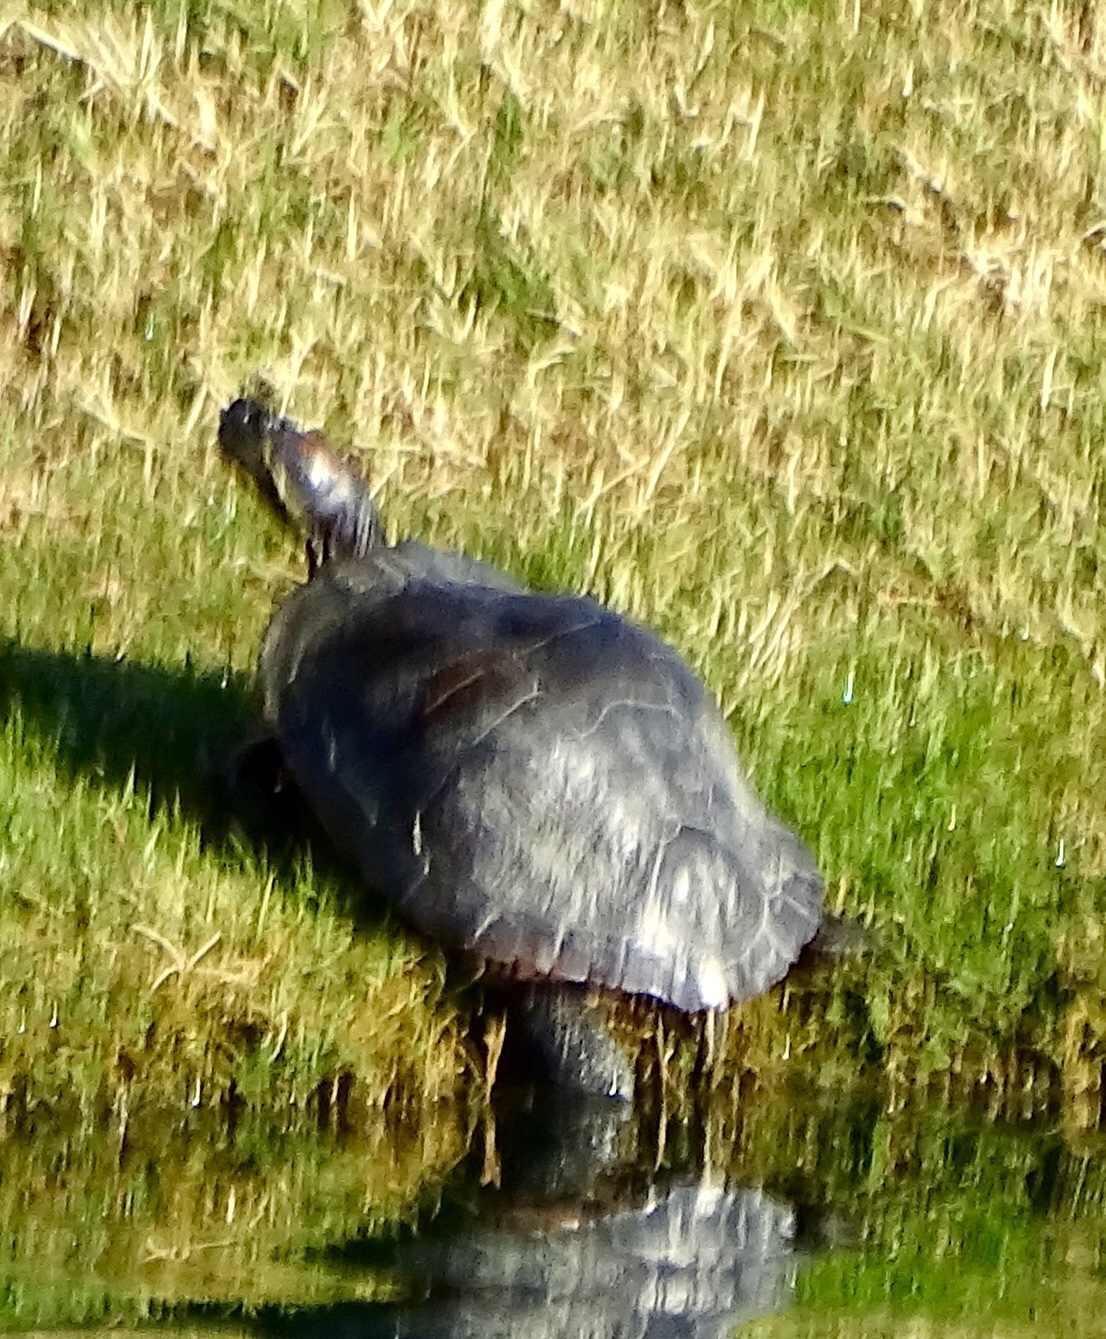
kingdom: Animalia
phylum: Chordata
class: Testudines
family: Emydidae
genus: Trachemys
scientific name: Trachemys scripta
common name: Slider
